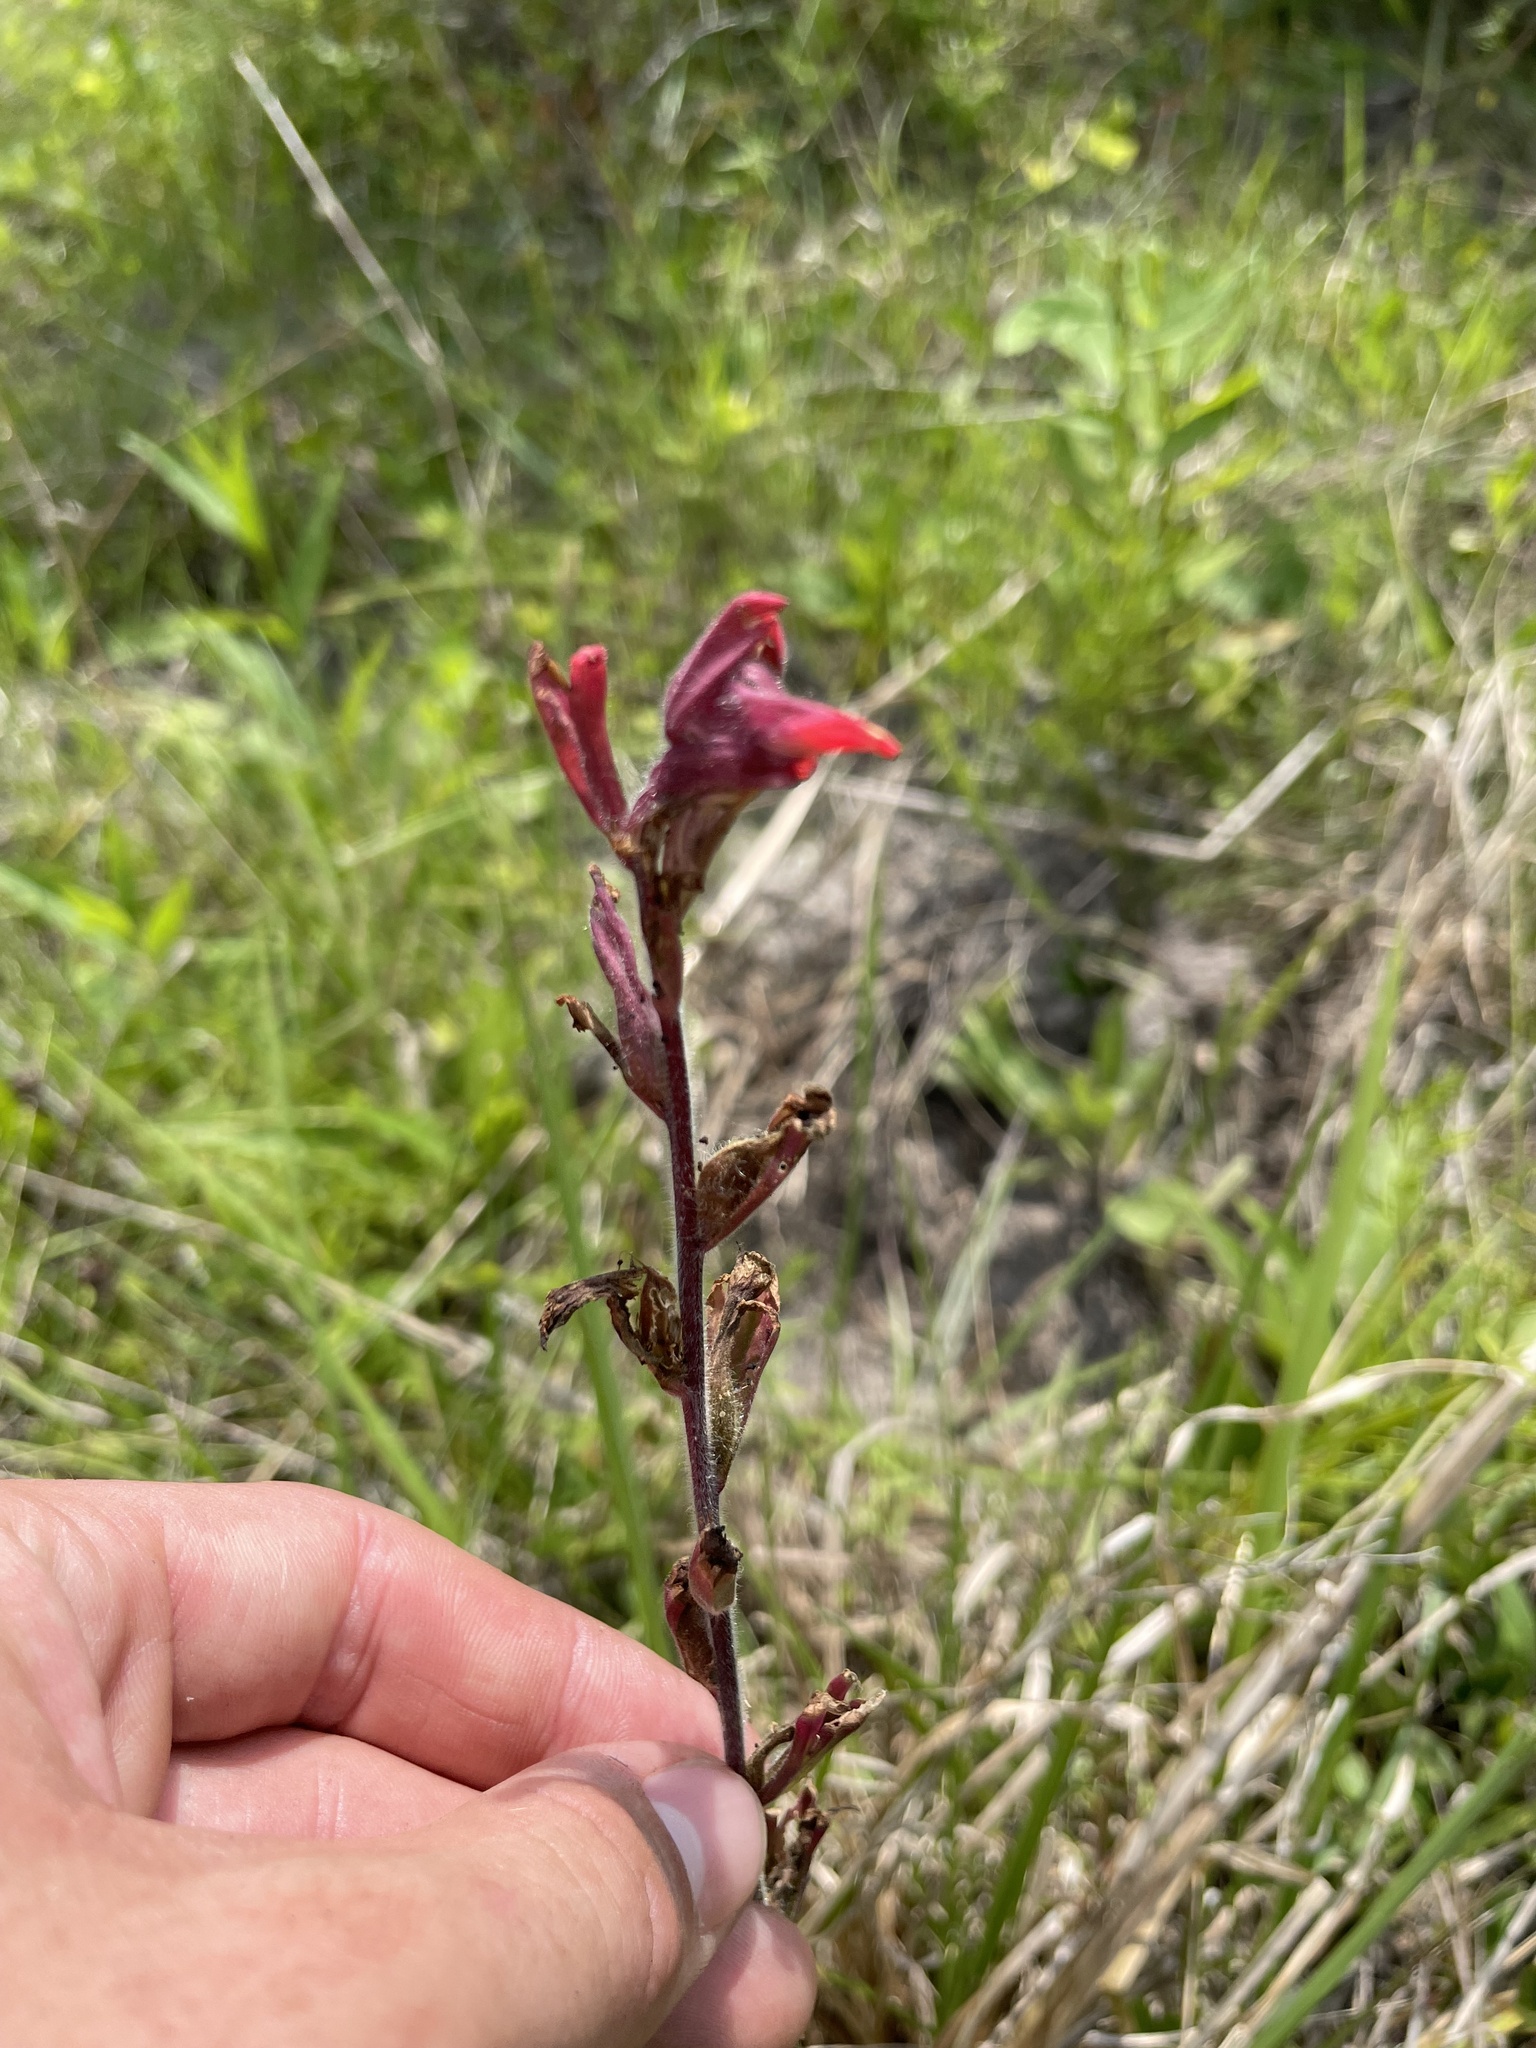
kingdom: Plantae
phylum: Tracheophyta
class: Magnoliopsida
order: Lamiales
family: Orobanchaceae
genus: Castilleja
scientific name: Castilleja coccinea
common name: Scarlet paintbrush
